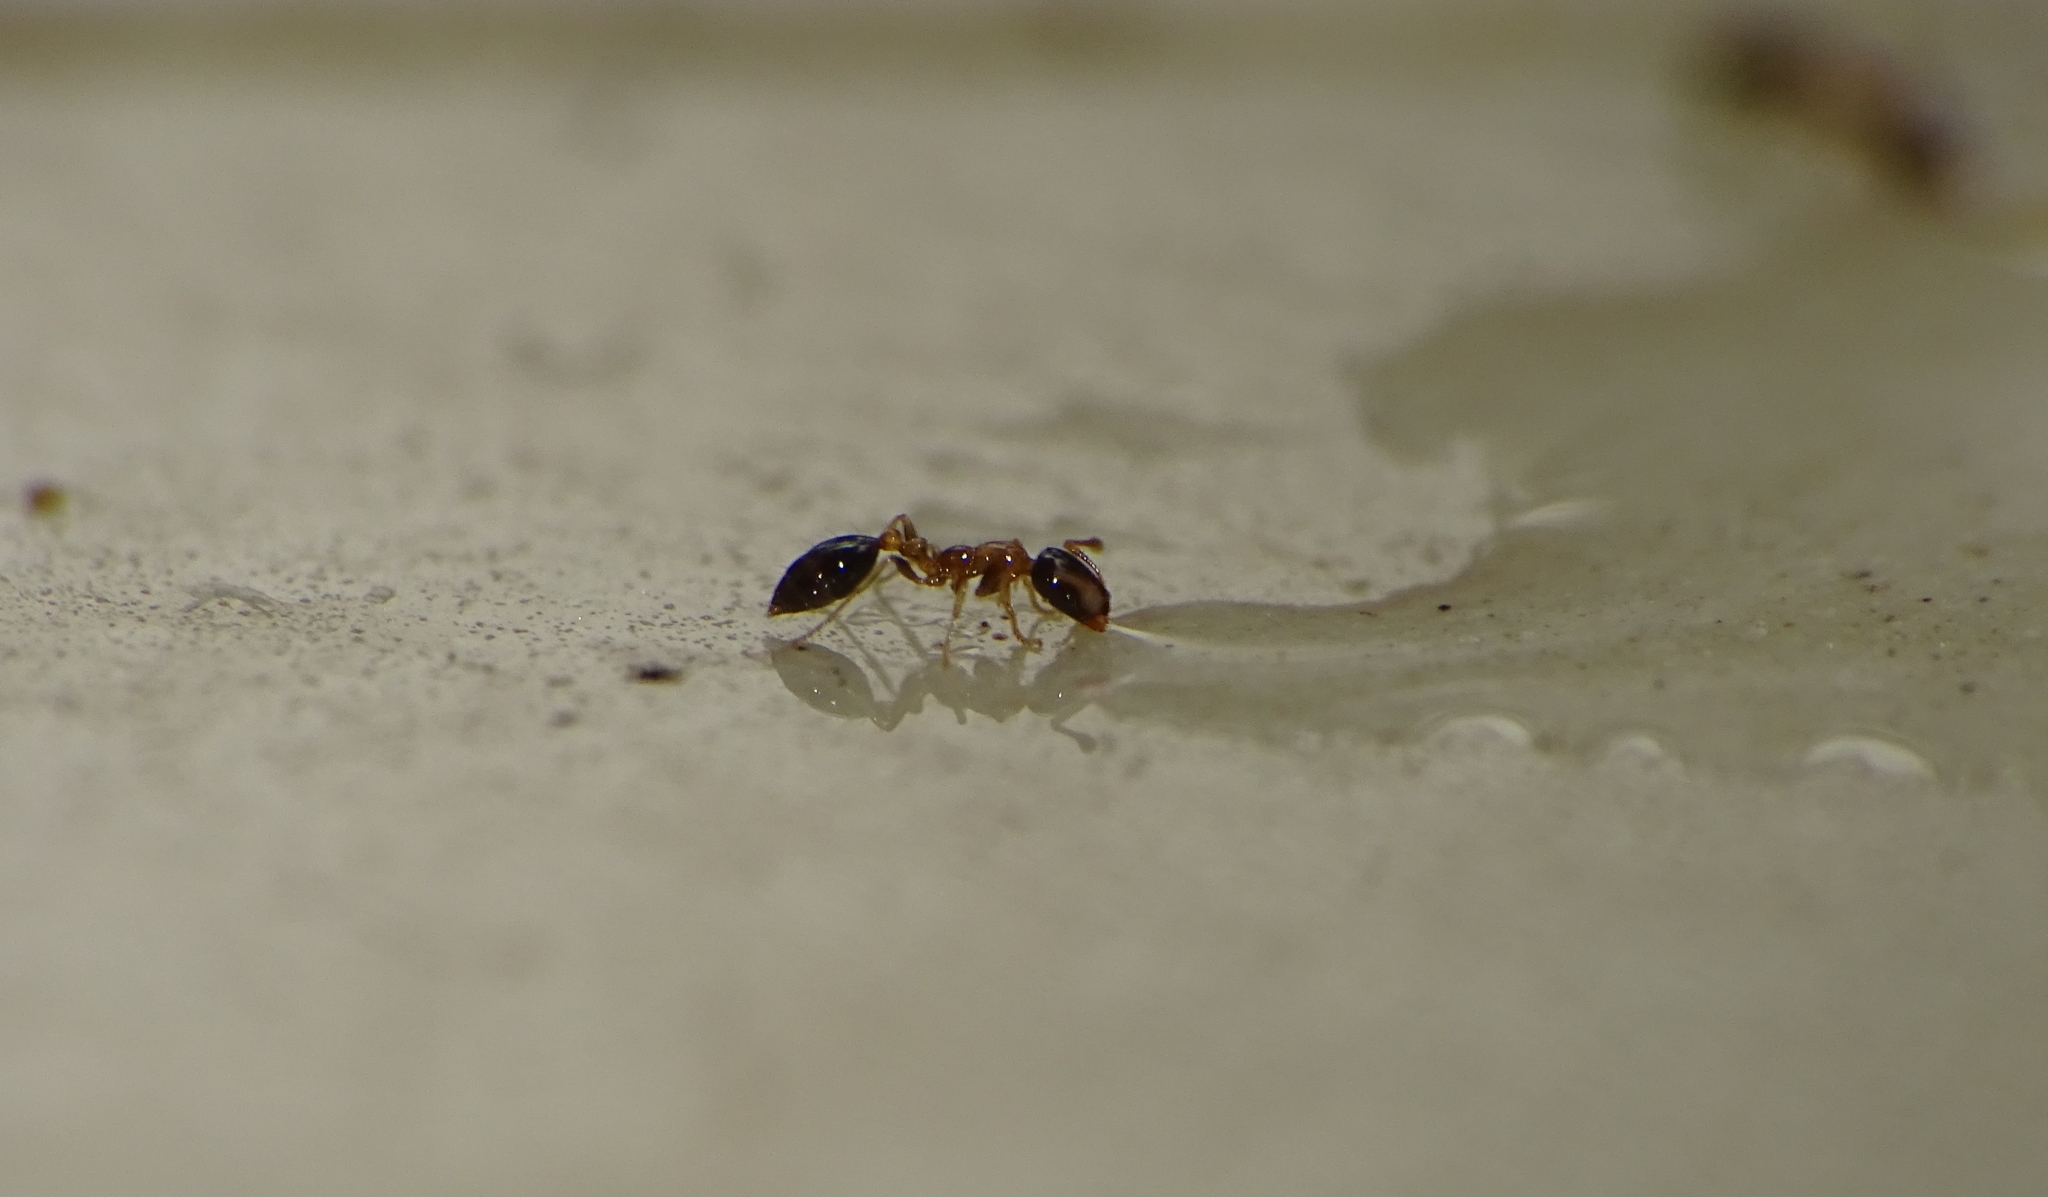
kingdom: Animalia
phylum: Arthropoda
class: Insecta
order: Hymenoptera
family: Formicidae
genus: Monomorium
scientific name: Monomorium floricola
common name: Bicolored trailing ant
